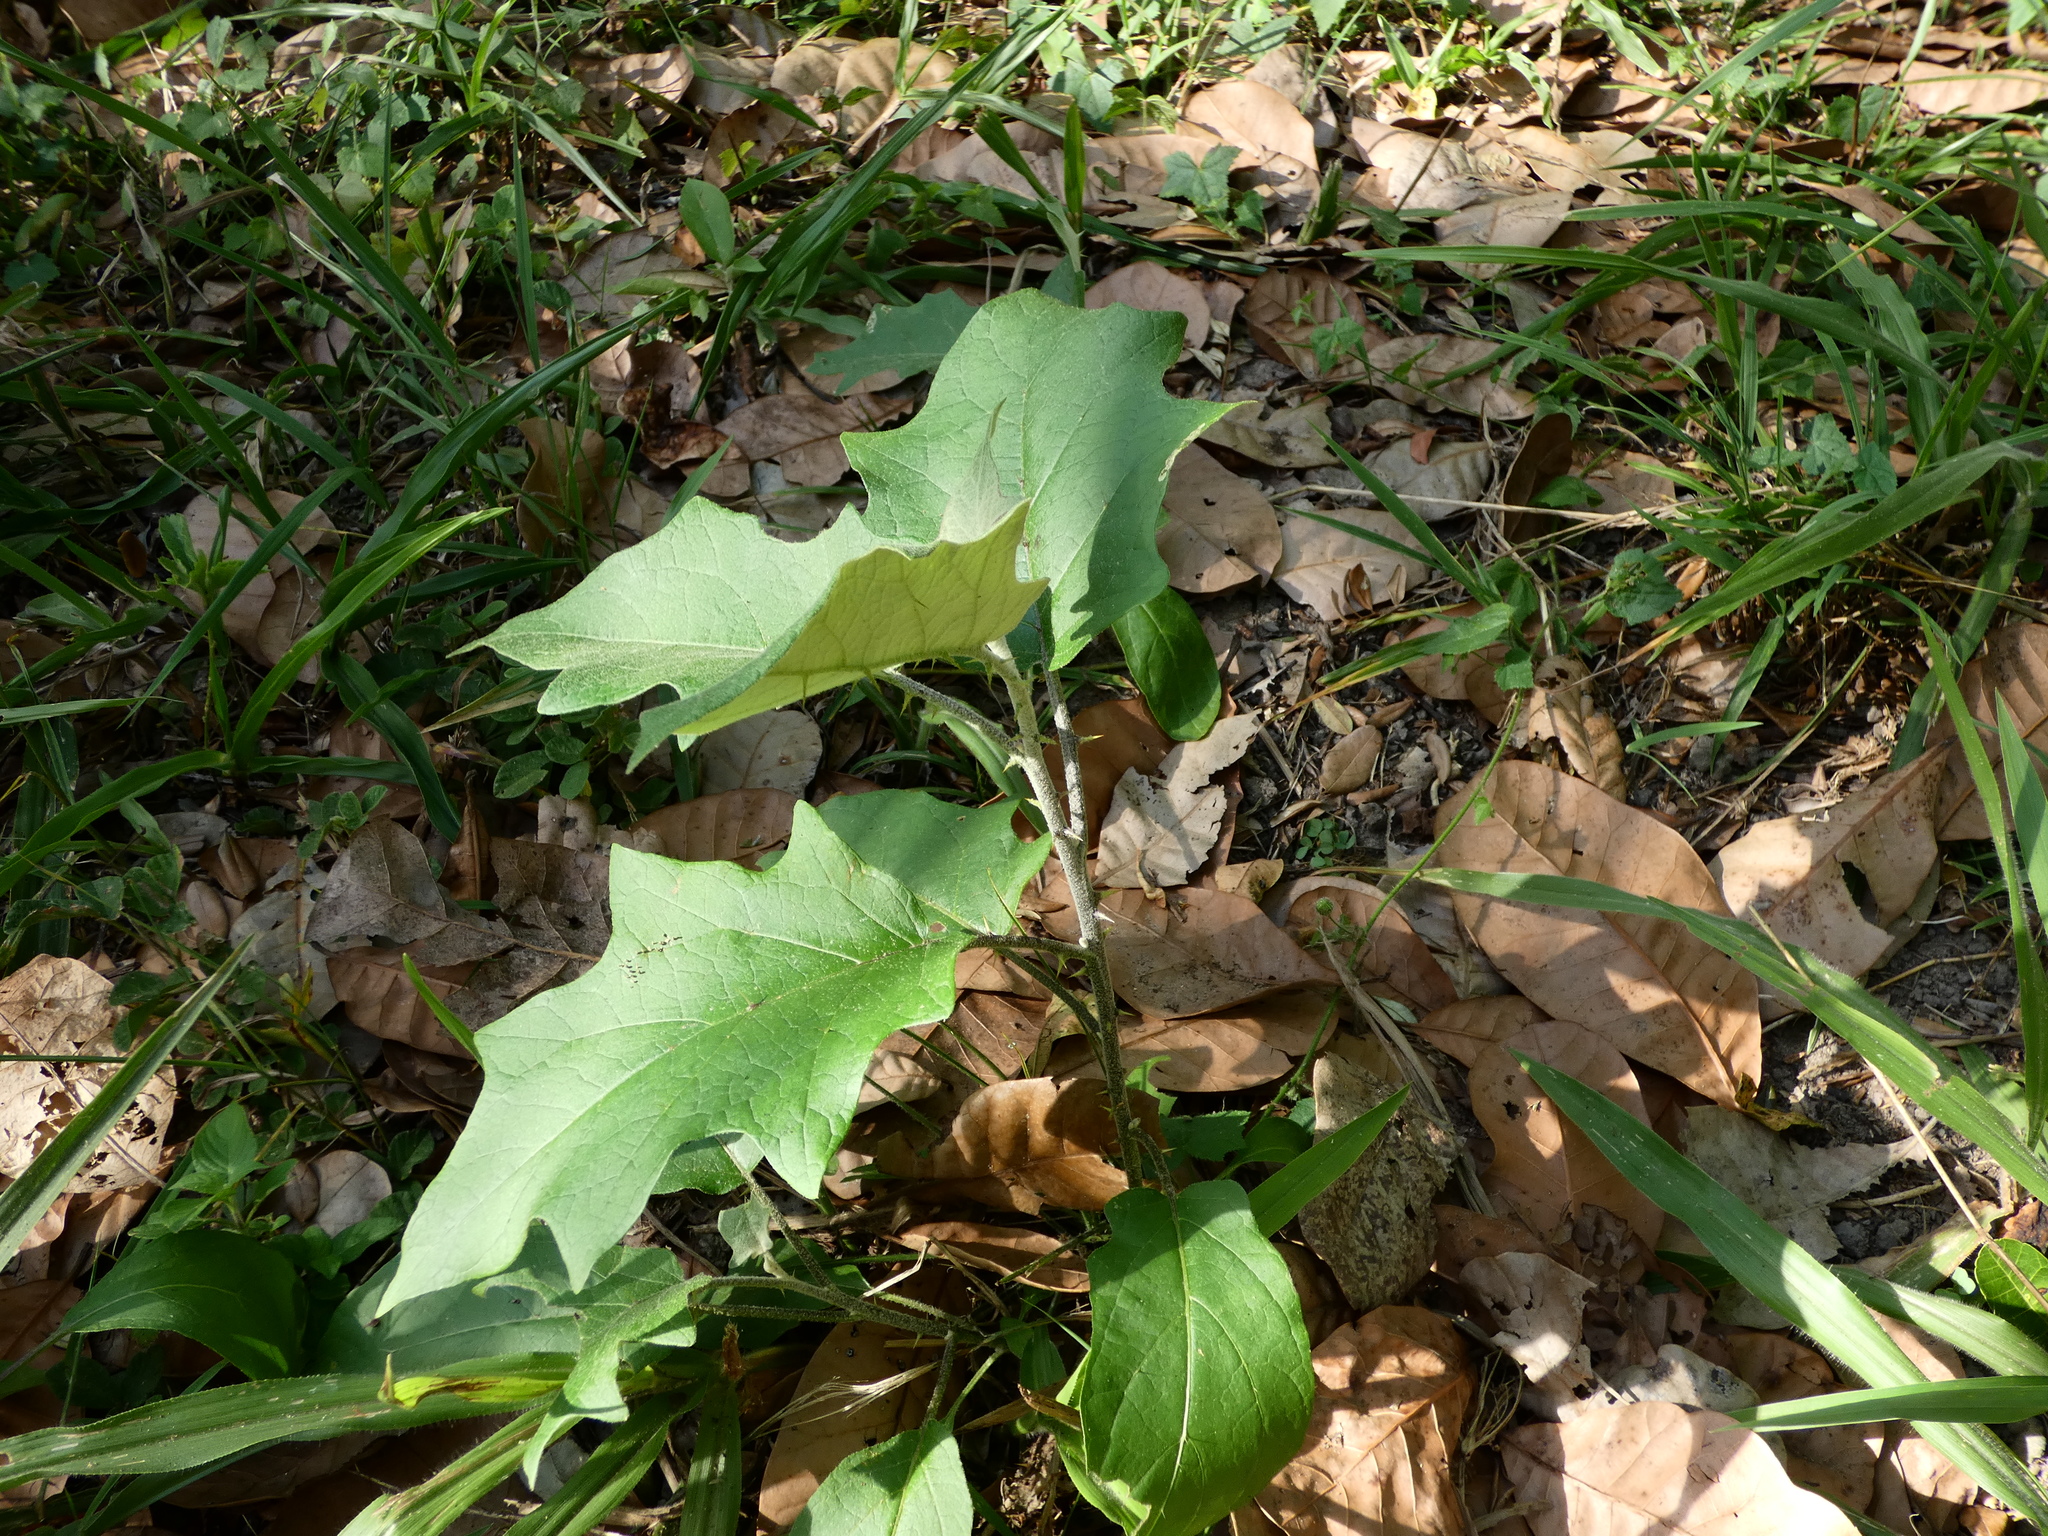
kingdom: Plantae
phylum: Tracheophyta
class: Magnoliopsida
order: Solanales
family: Solanaceae
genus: Solanum
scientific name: Solanum paniculatum
